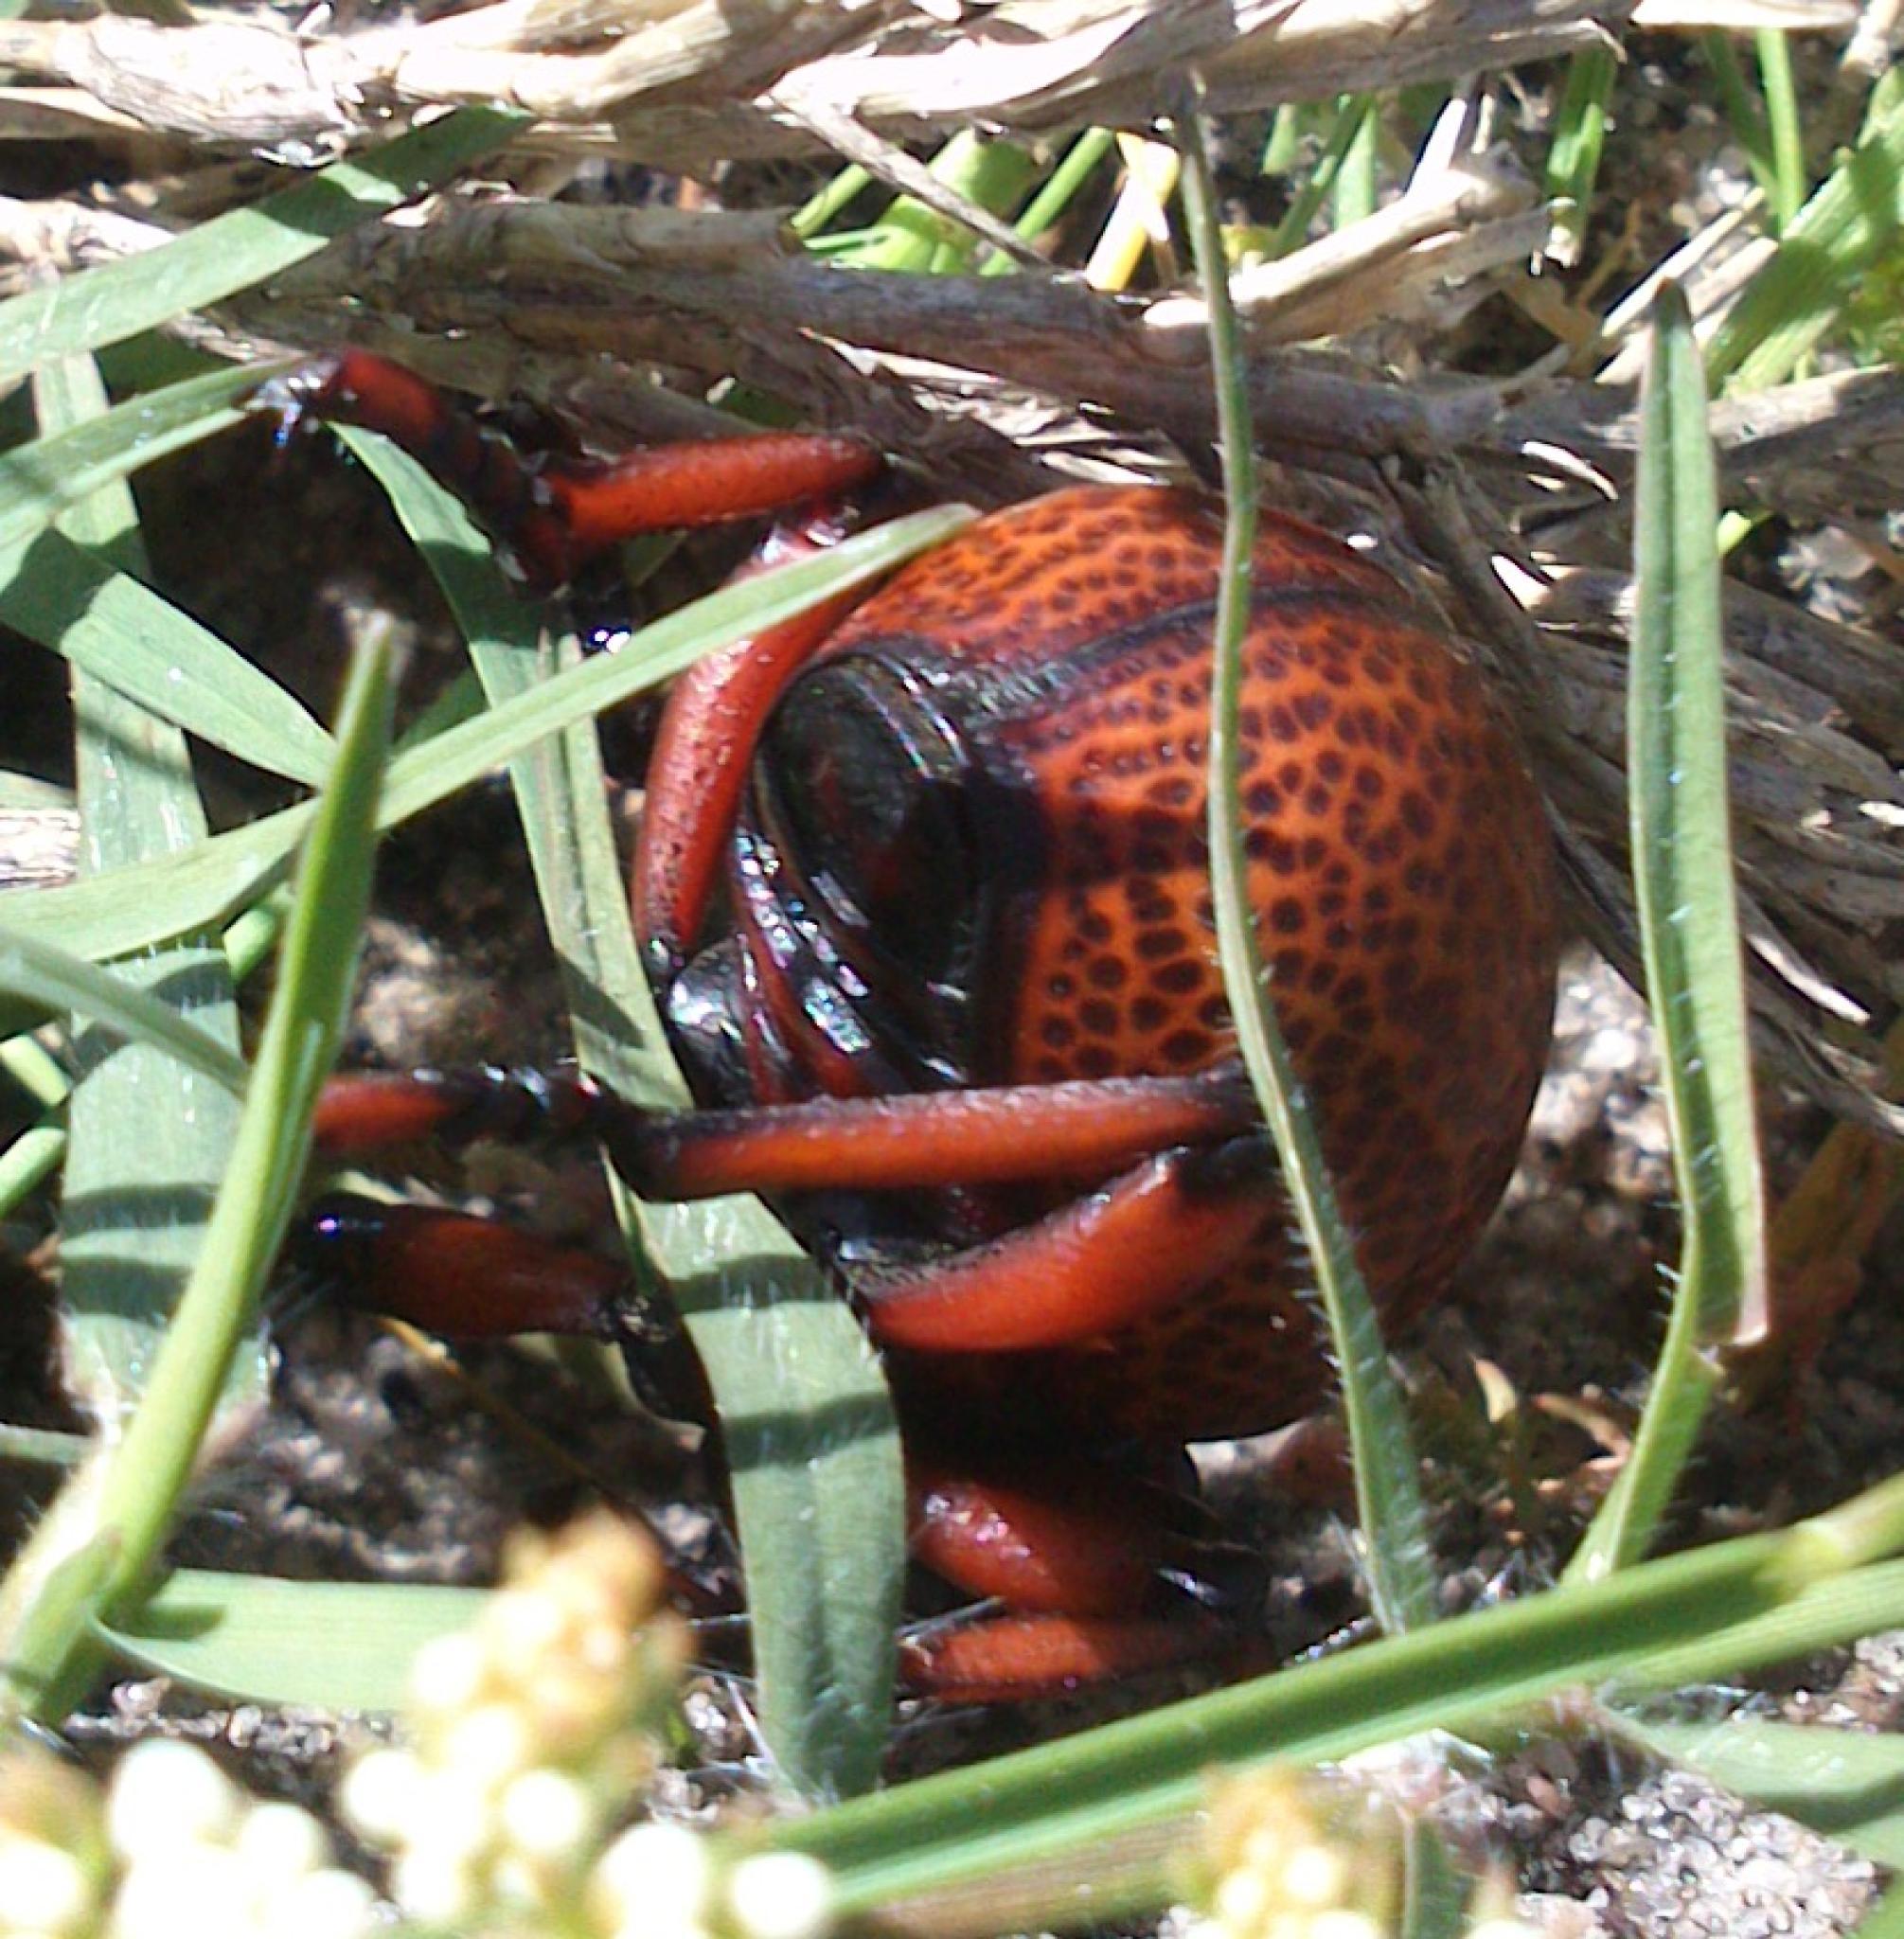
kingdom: Animalia
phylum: Arthropoda
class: Insecta
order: Coleoptera
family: Brachyceridae
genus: Brachycerus
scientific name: Brachycerus obesus
